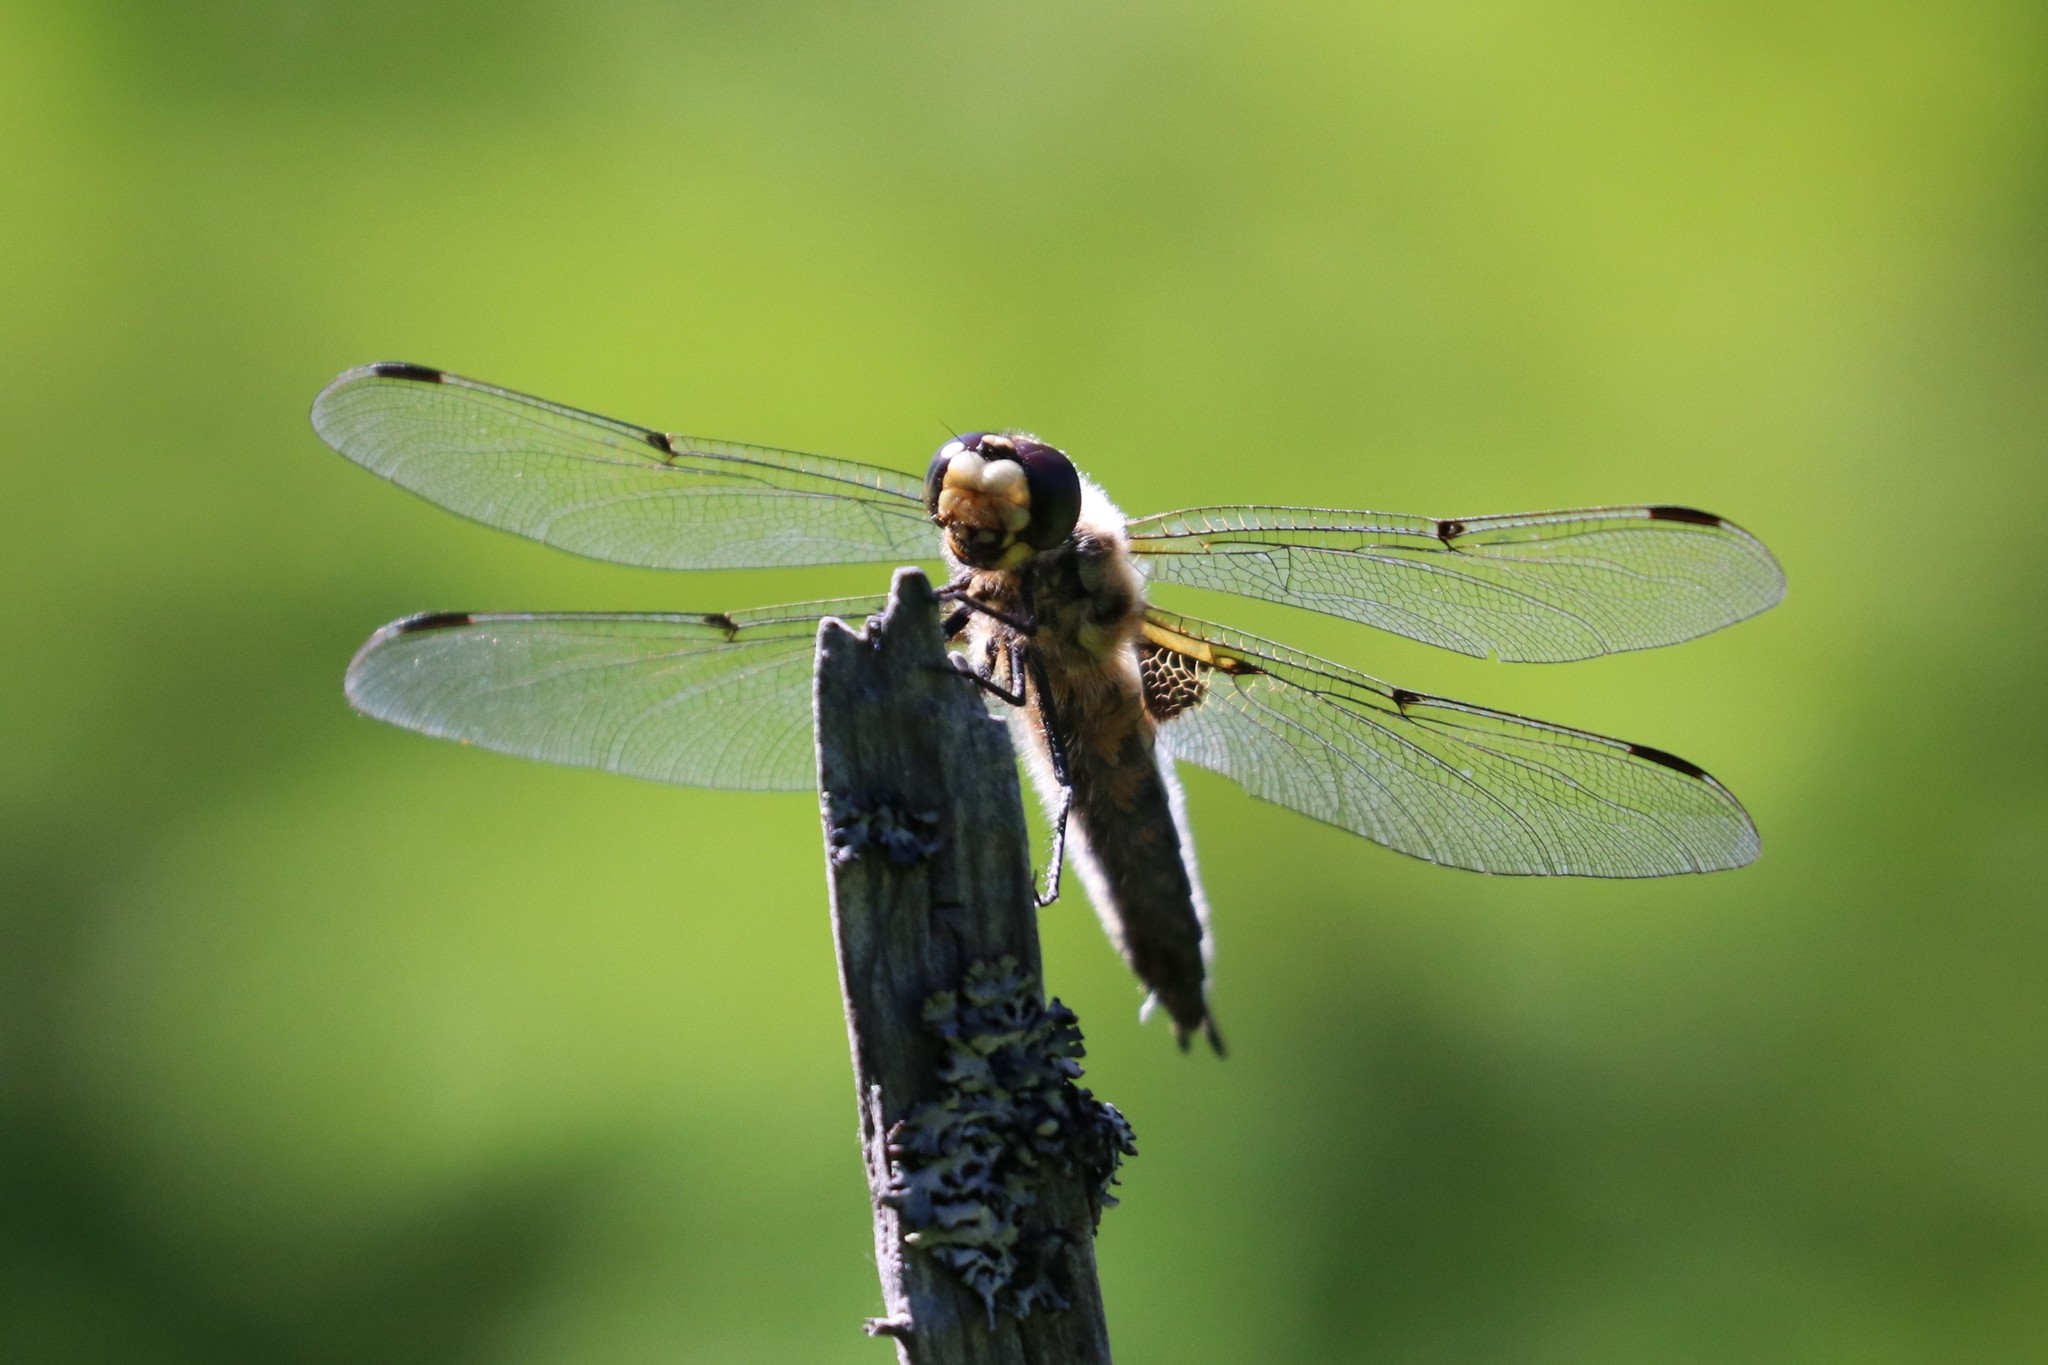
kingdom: Animalia
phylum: Arthropoda
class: Insecta
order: Odonata
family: Libellulidae
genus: Libellula
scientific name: Libellula quadrimaculata
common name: Four-spotted chaser
